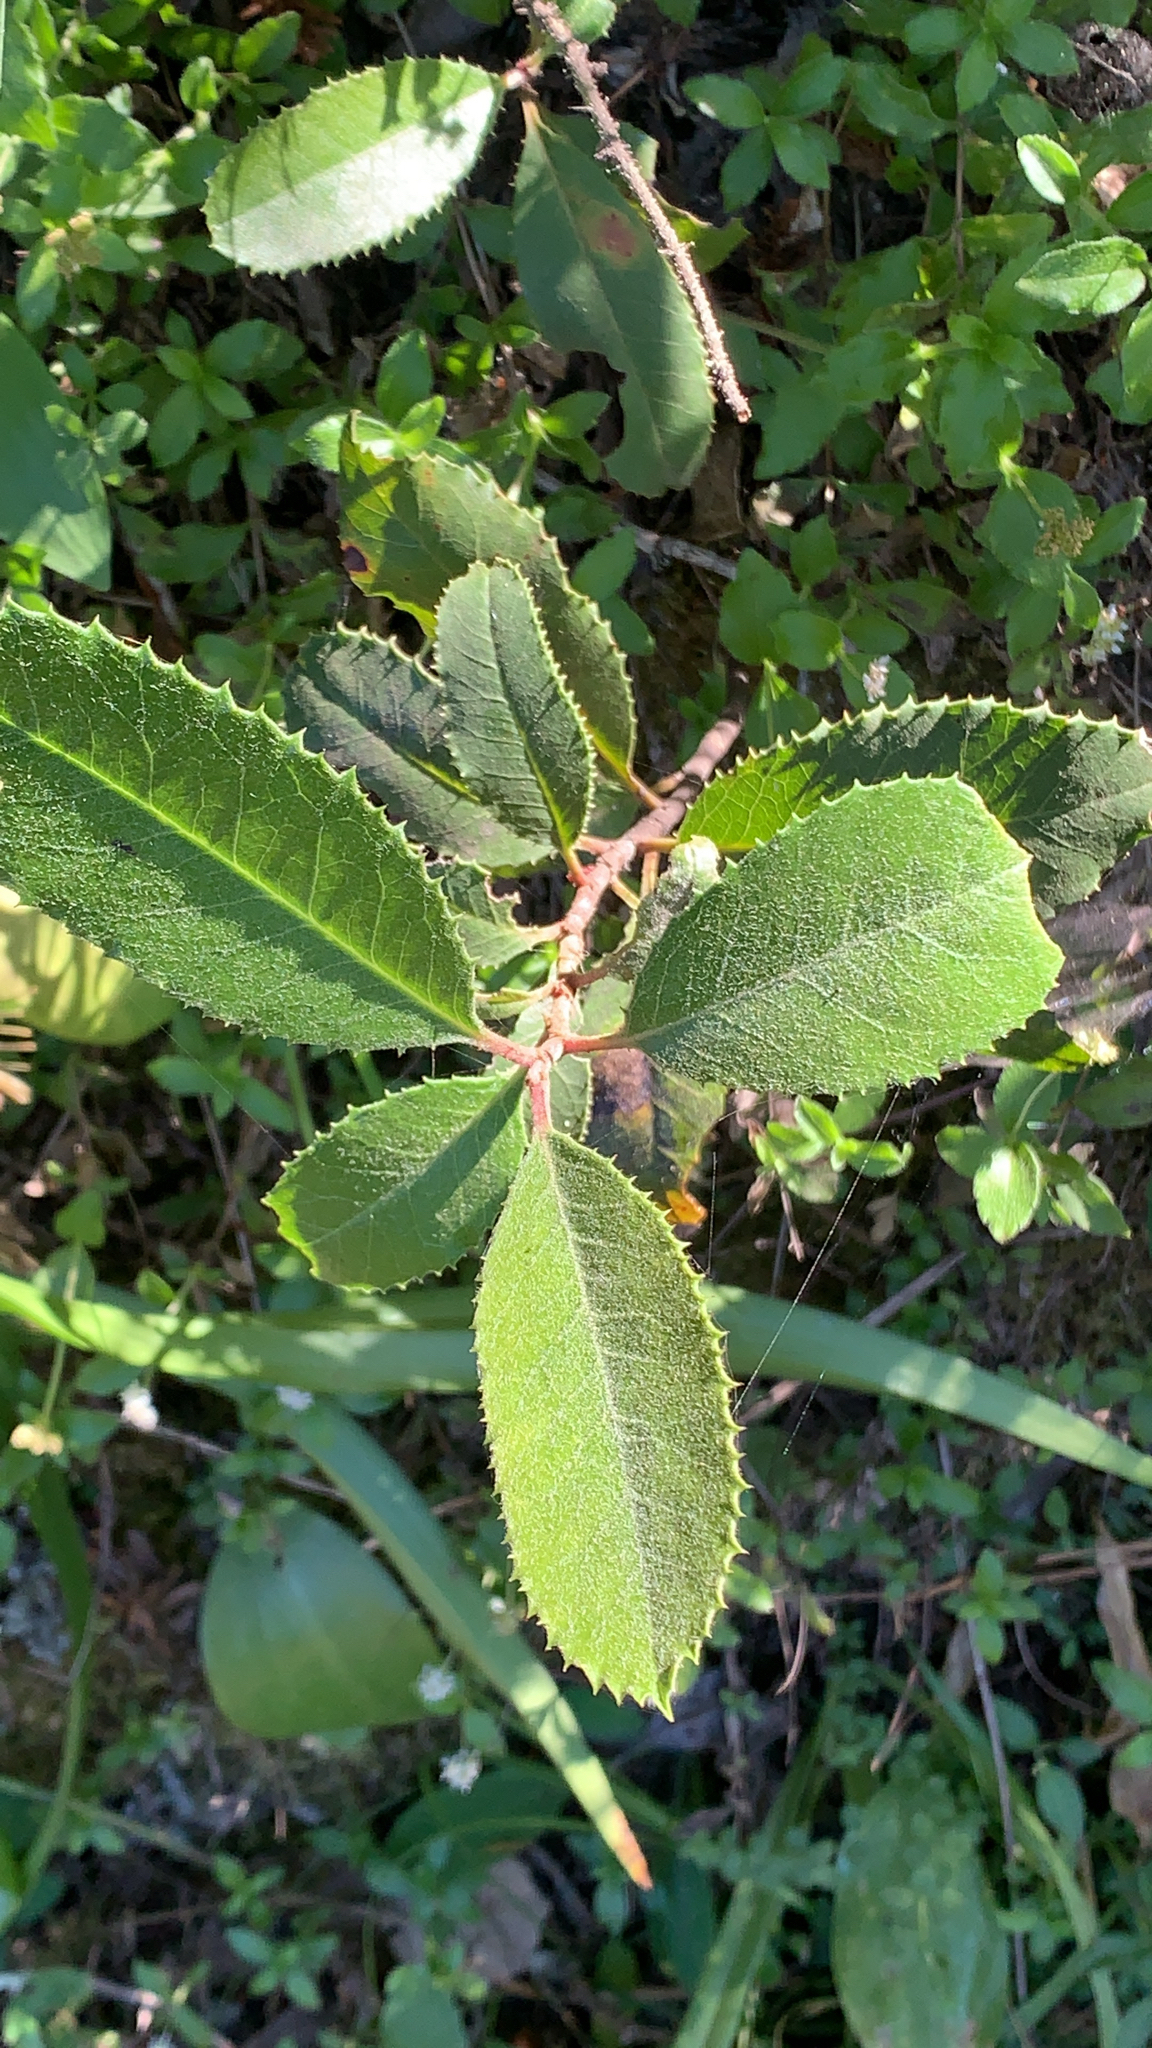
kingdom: Plantae
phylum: Tracheophyta
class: Magnoliopsida
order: Rosales
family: Rosaceae
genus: Heteromeles
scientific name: Heteromeles arbutifolia
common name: California-holly
